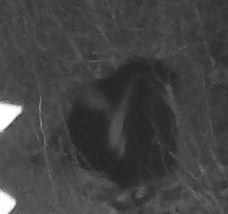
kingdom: Animalia
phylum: Chordata
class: Mammalia
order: Carnivora
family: Mephitidae
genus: Mephitis
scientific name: Mephitis mephitis
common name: Striped skunk
